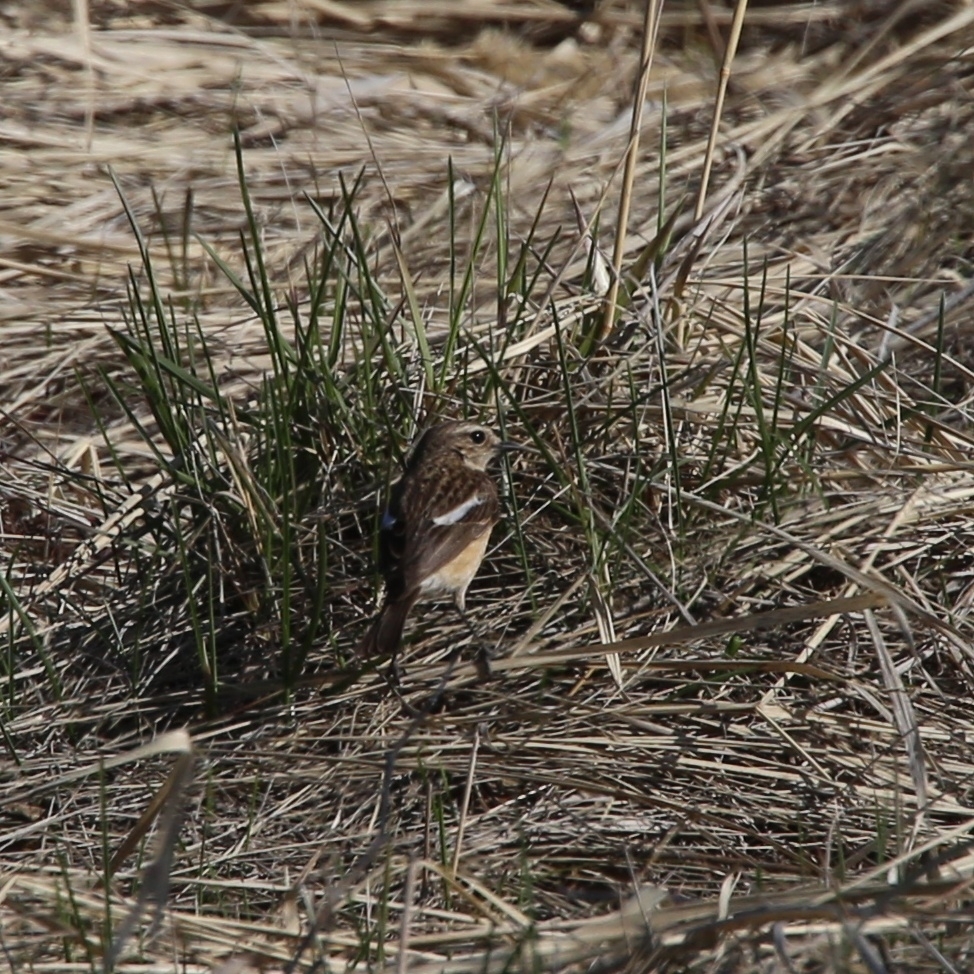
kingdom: Animalia
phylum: Chordata
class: Aves
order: Passeriformes
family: Muscicapidae
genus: Saxicola
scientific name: Saxicola maurus
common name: Siberian stonechat
